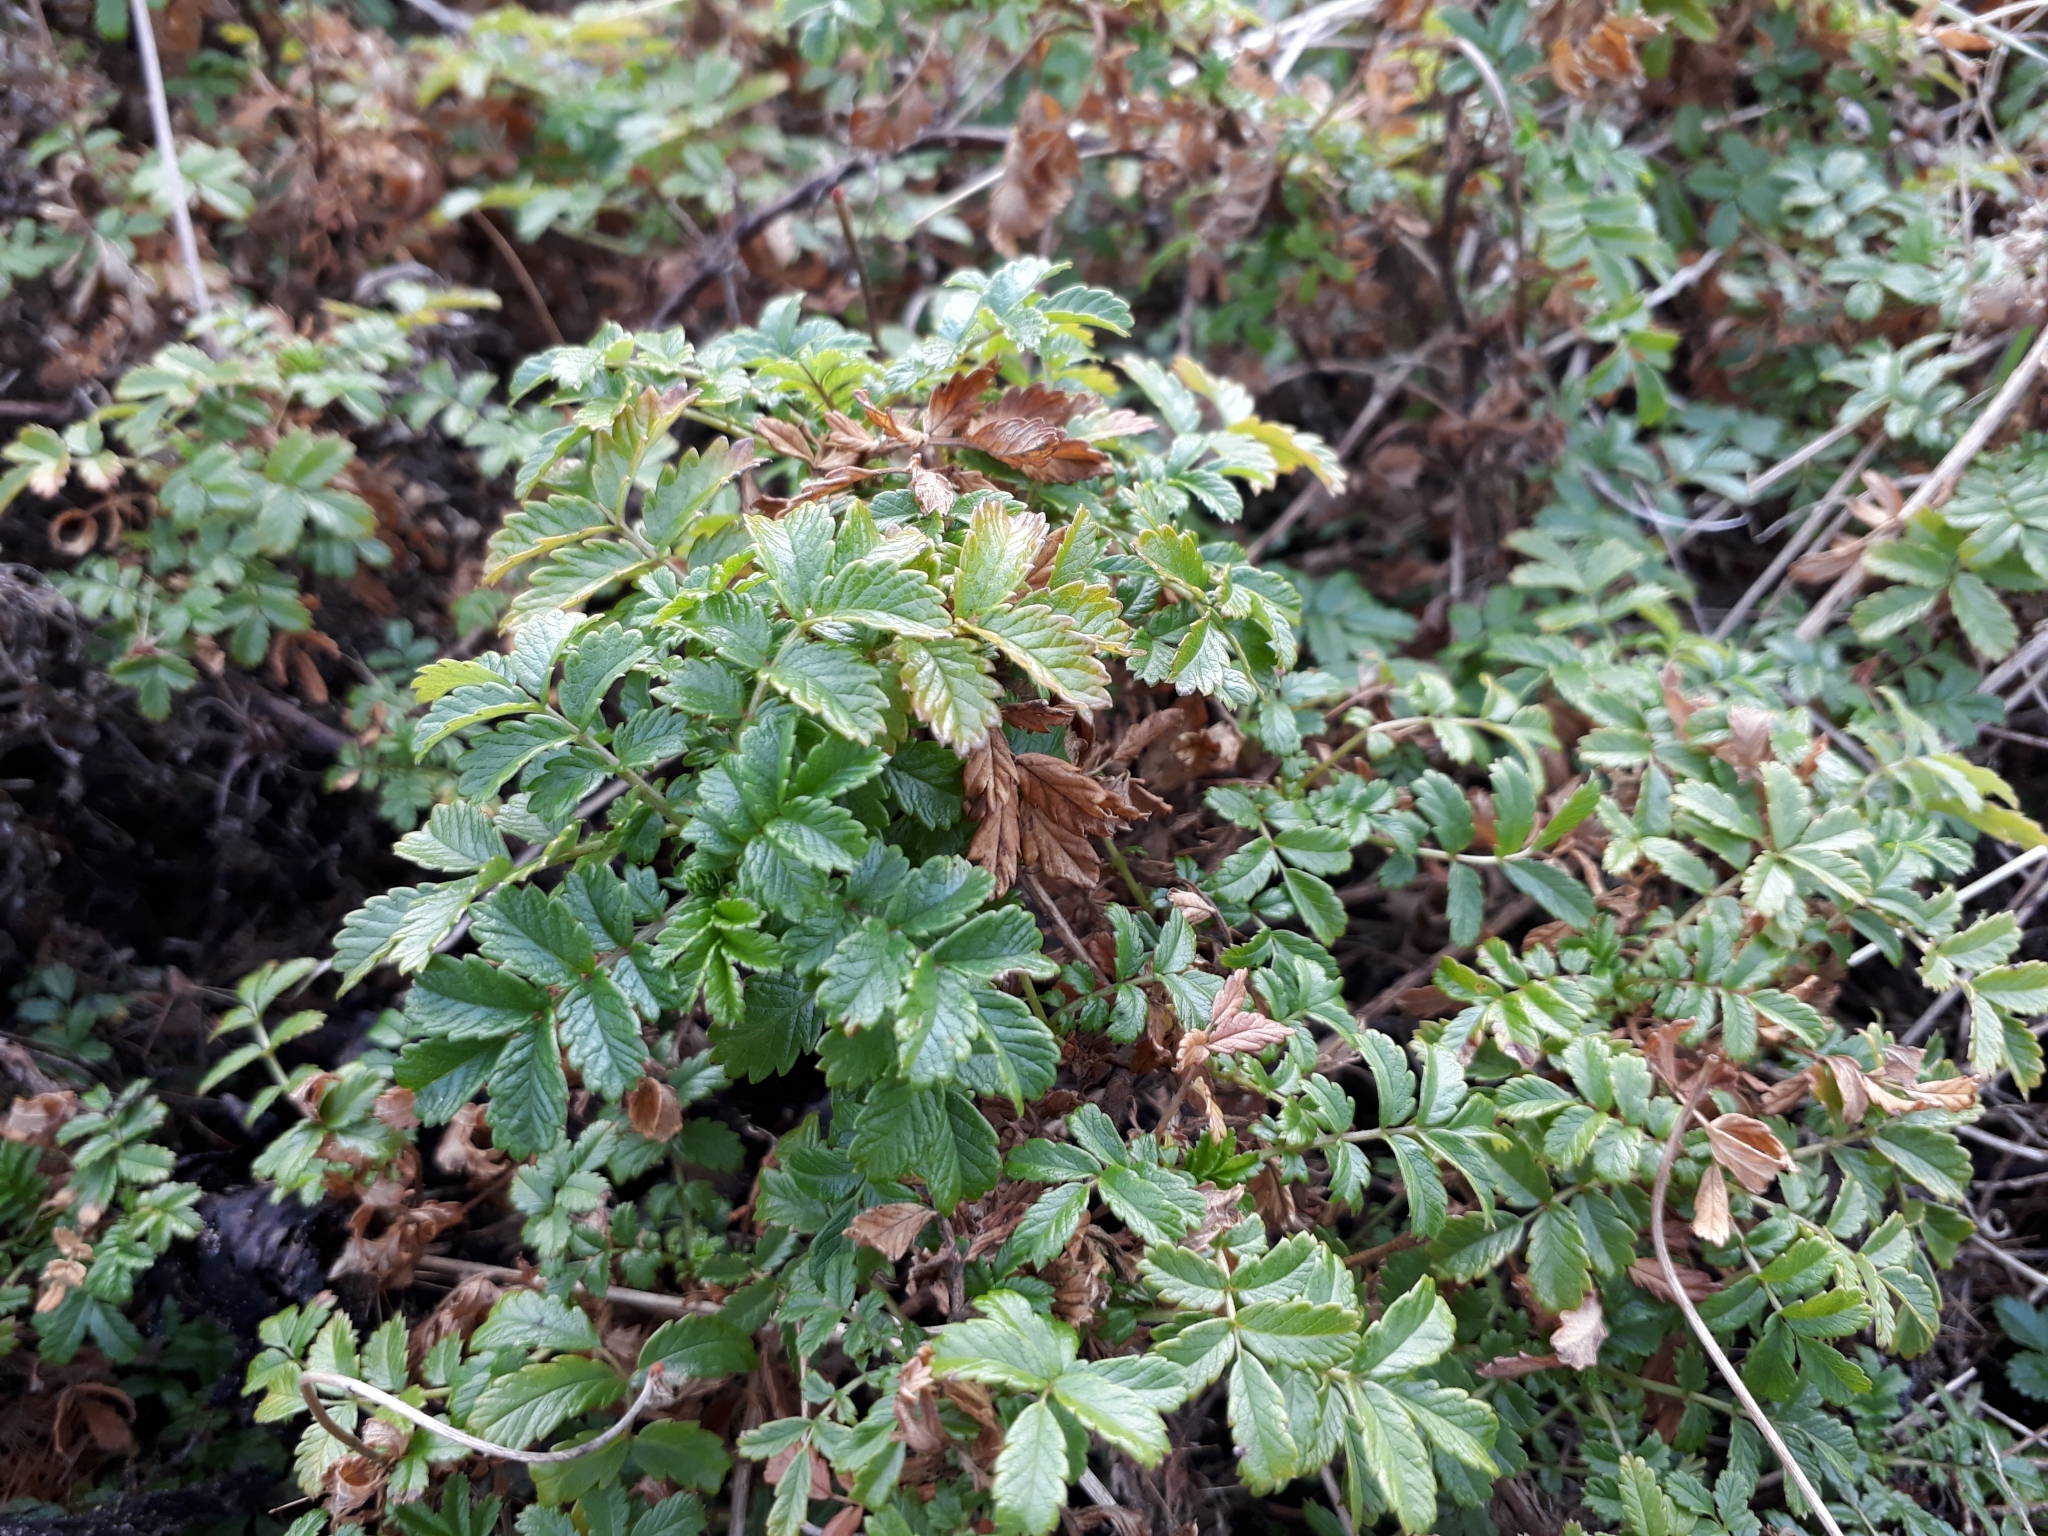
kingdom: Plantae
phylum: Tracheophyta
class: Magnoliopsida
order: Rosales
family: Rosaceae
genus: Acaena
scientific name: Acaena novae-zelandiae
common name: Pirri-pirri-bur
